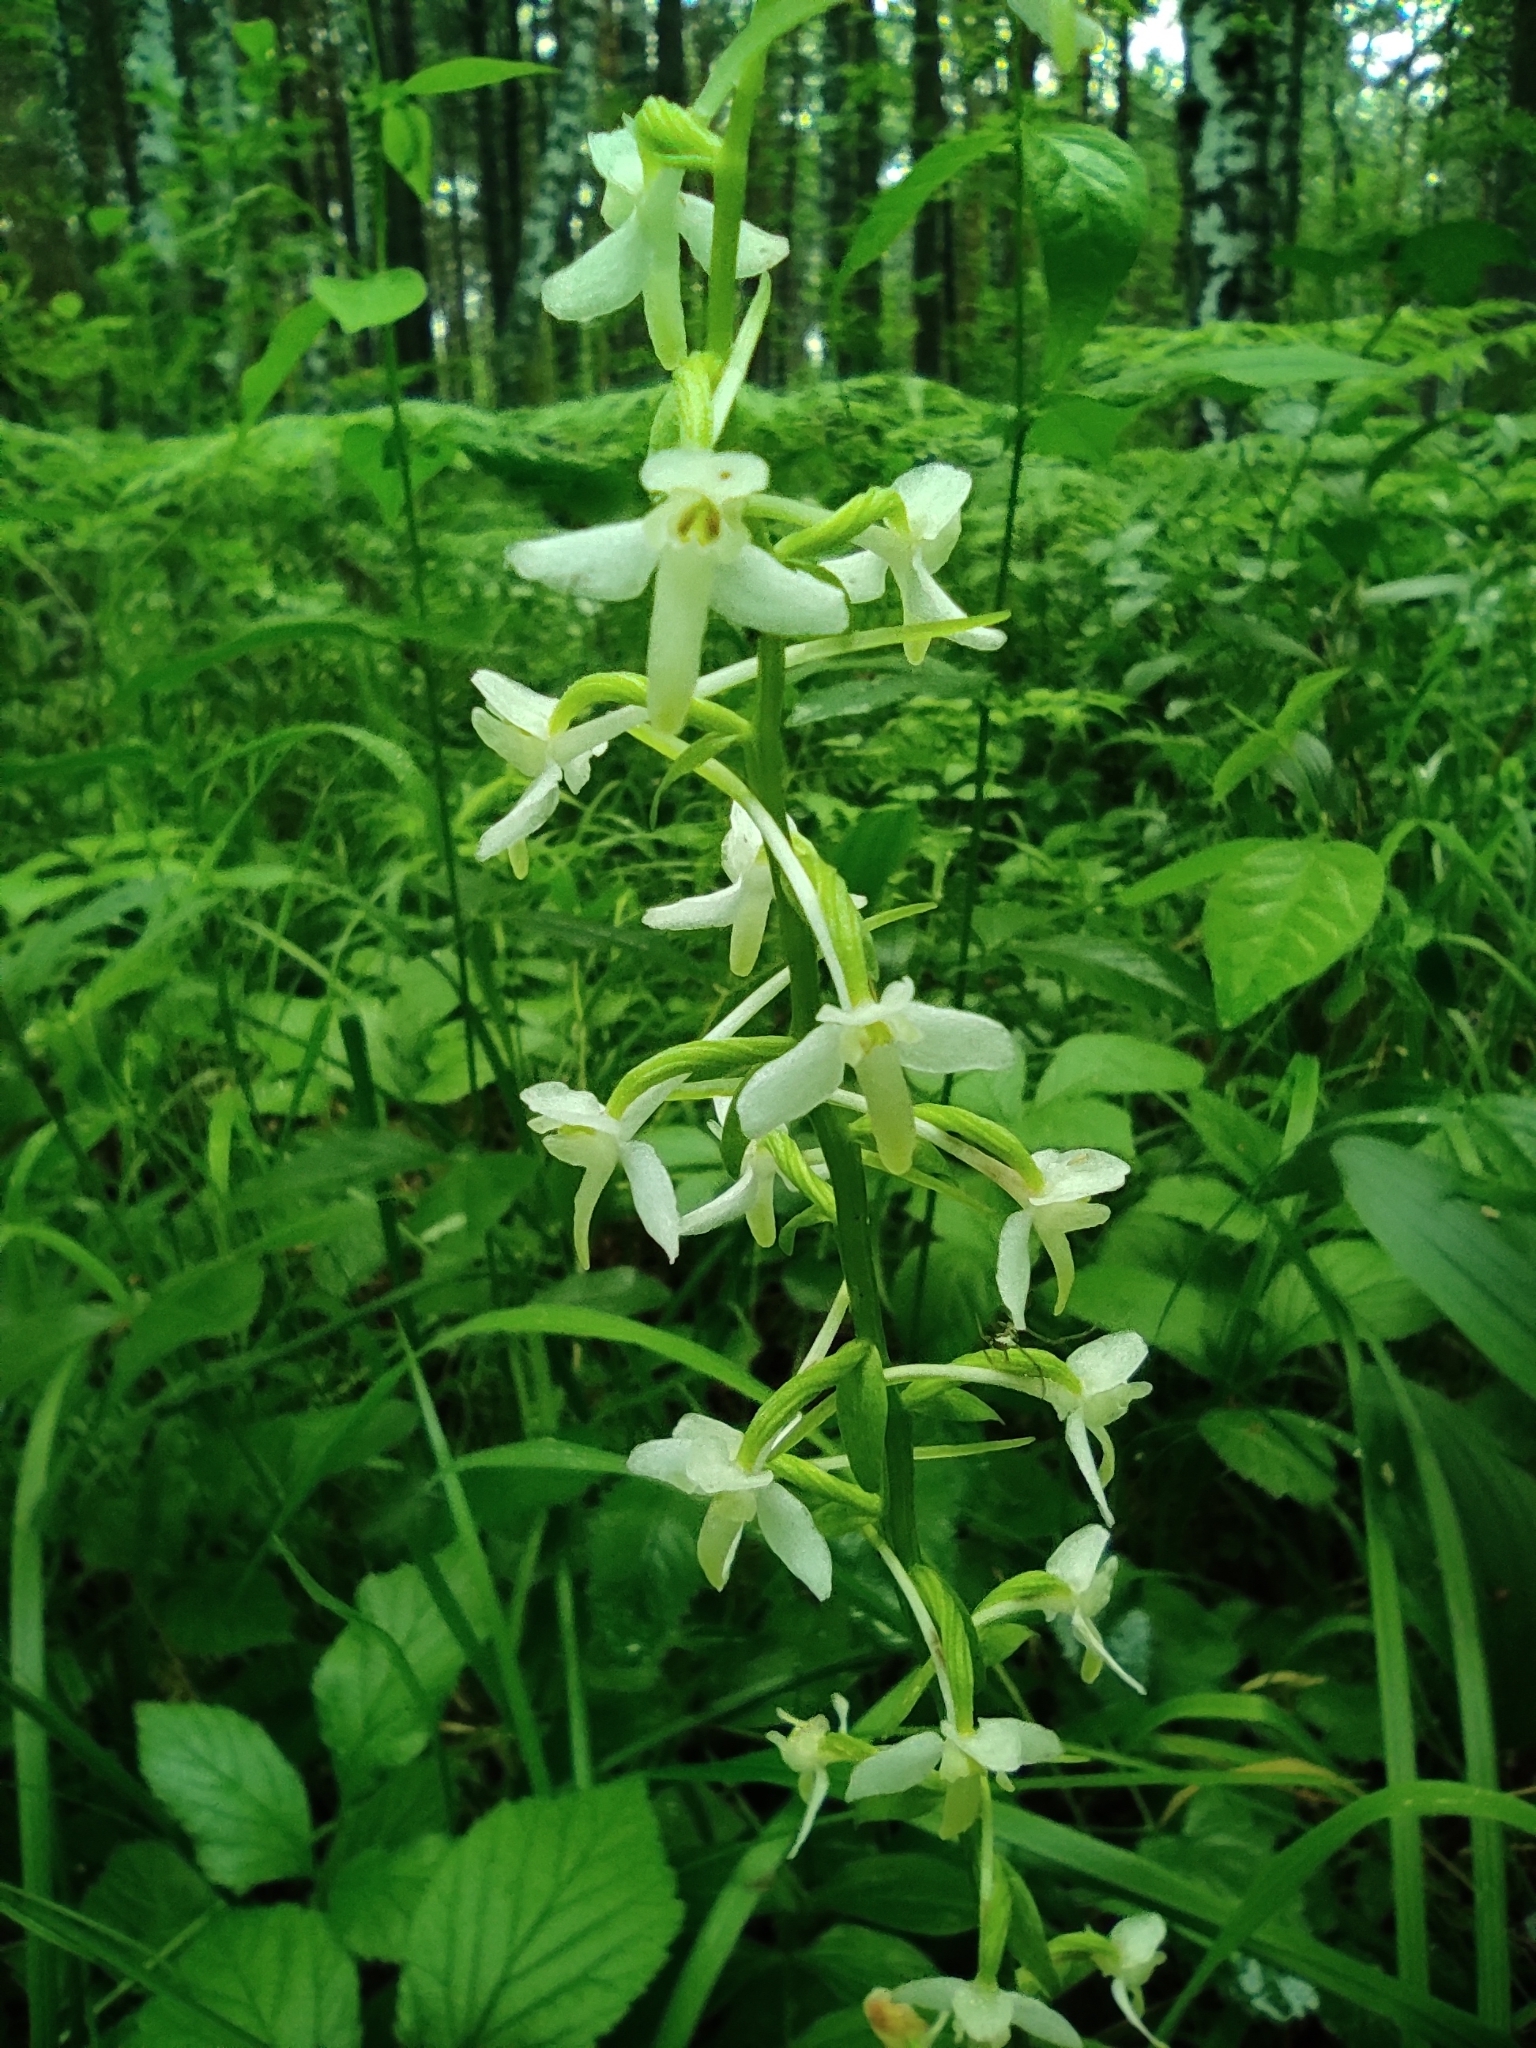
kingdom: Plantae
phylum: Tracheophyta
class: Liliopsida
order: Asparagales
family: Orchidaceae
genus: Platanthera
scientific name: Platanthera bifolia
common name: Lesser butterfly-orchid
